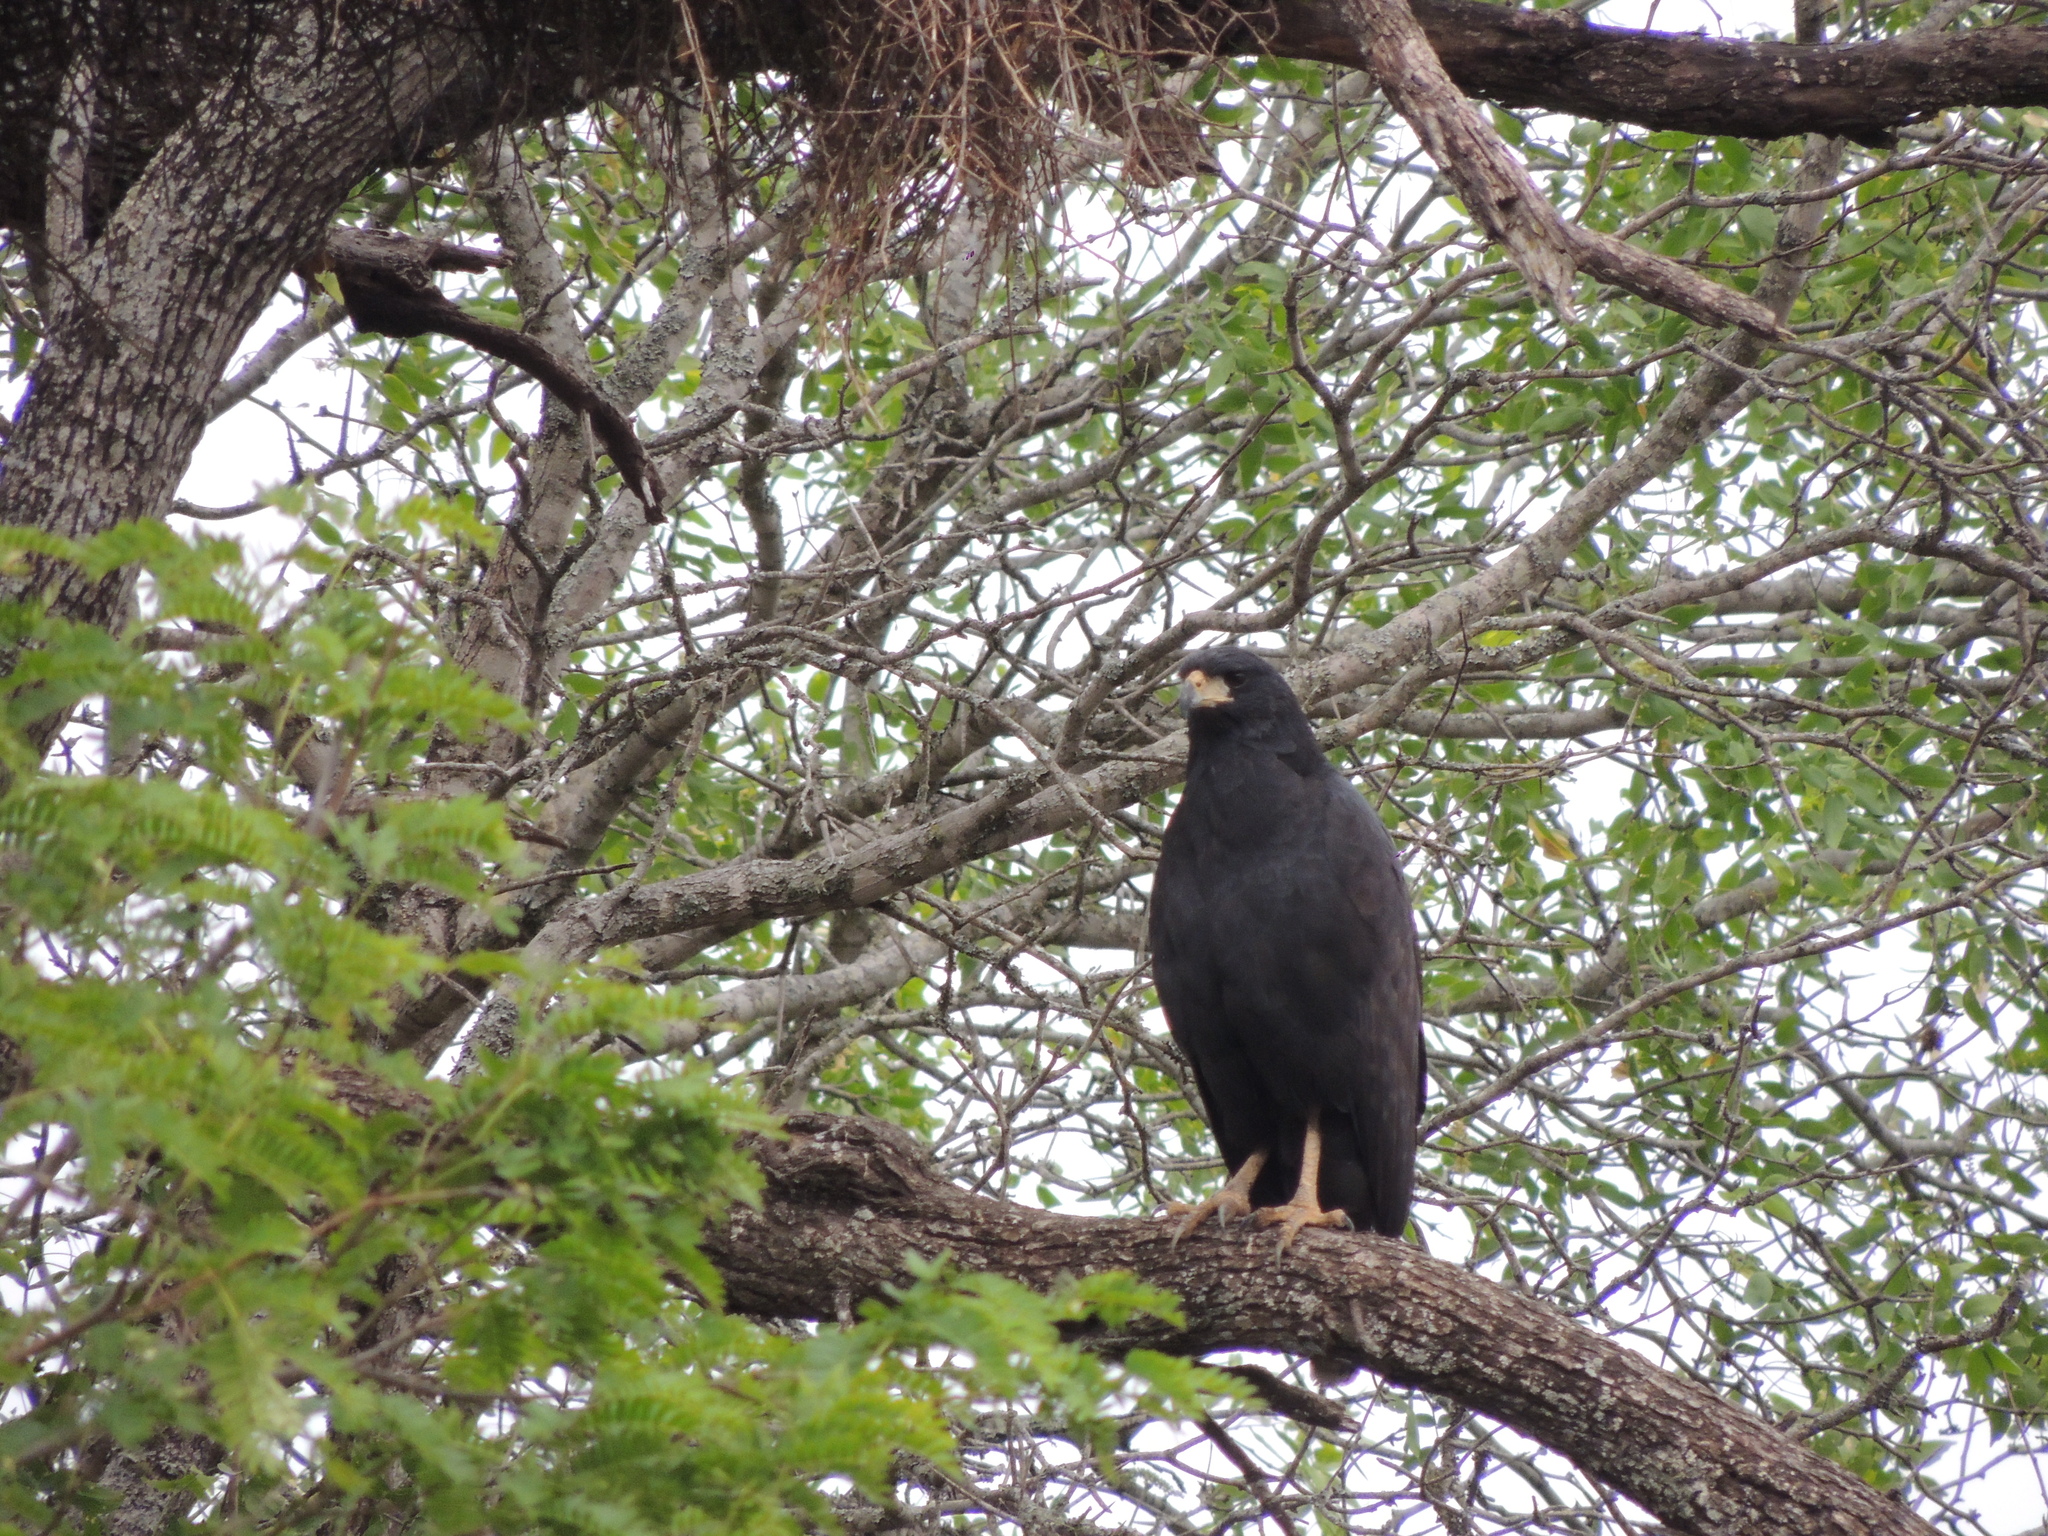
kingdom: Animalia
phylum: Chordata
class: Aves
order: Accipitriformes
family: Accipitridae
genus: Buteogallus
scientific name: Buteogallus urubitinga
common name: Great black hawk
